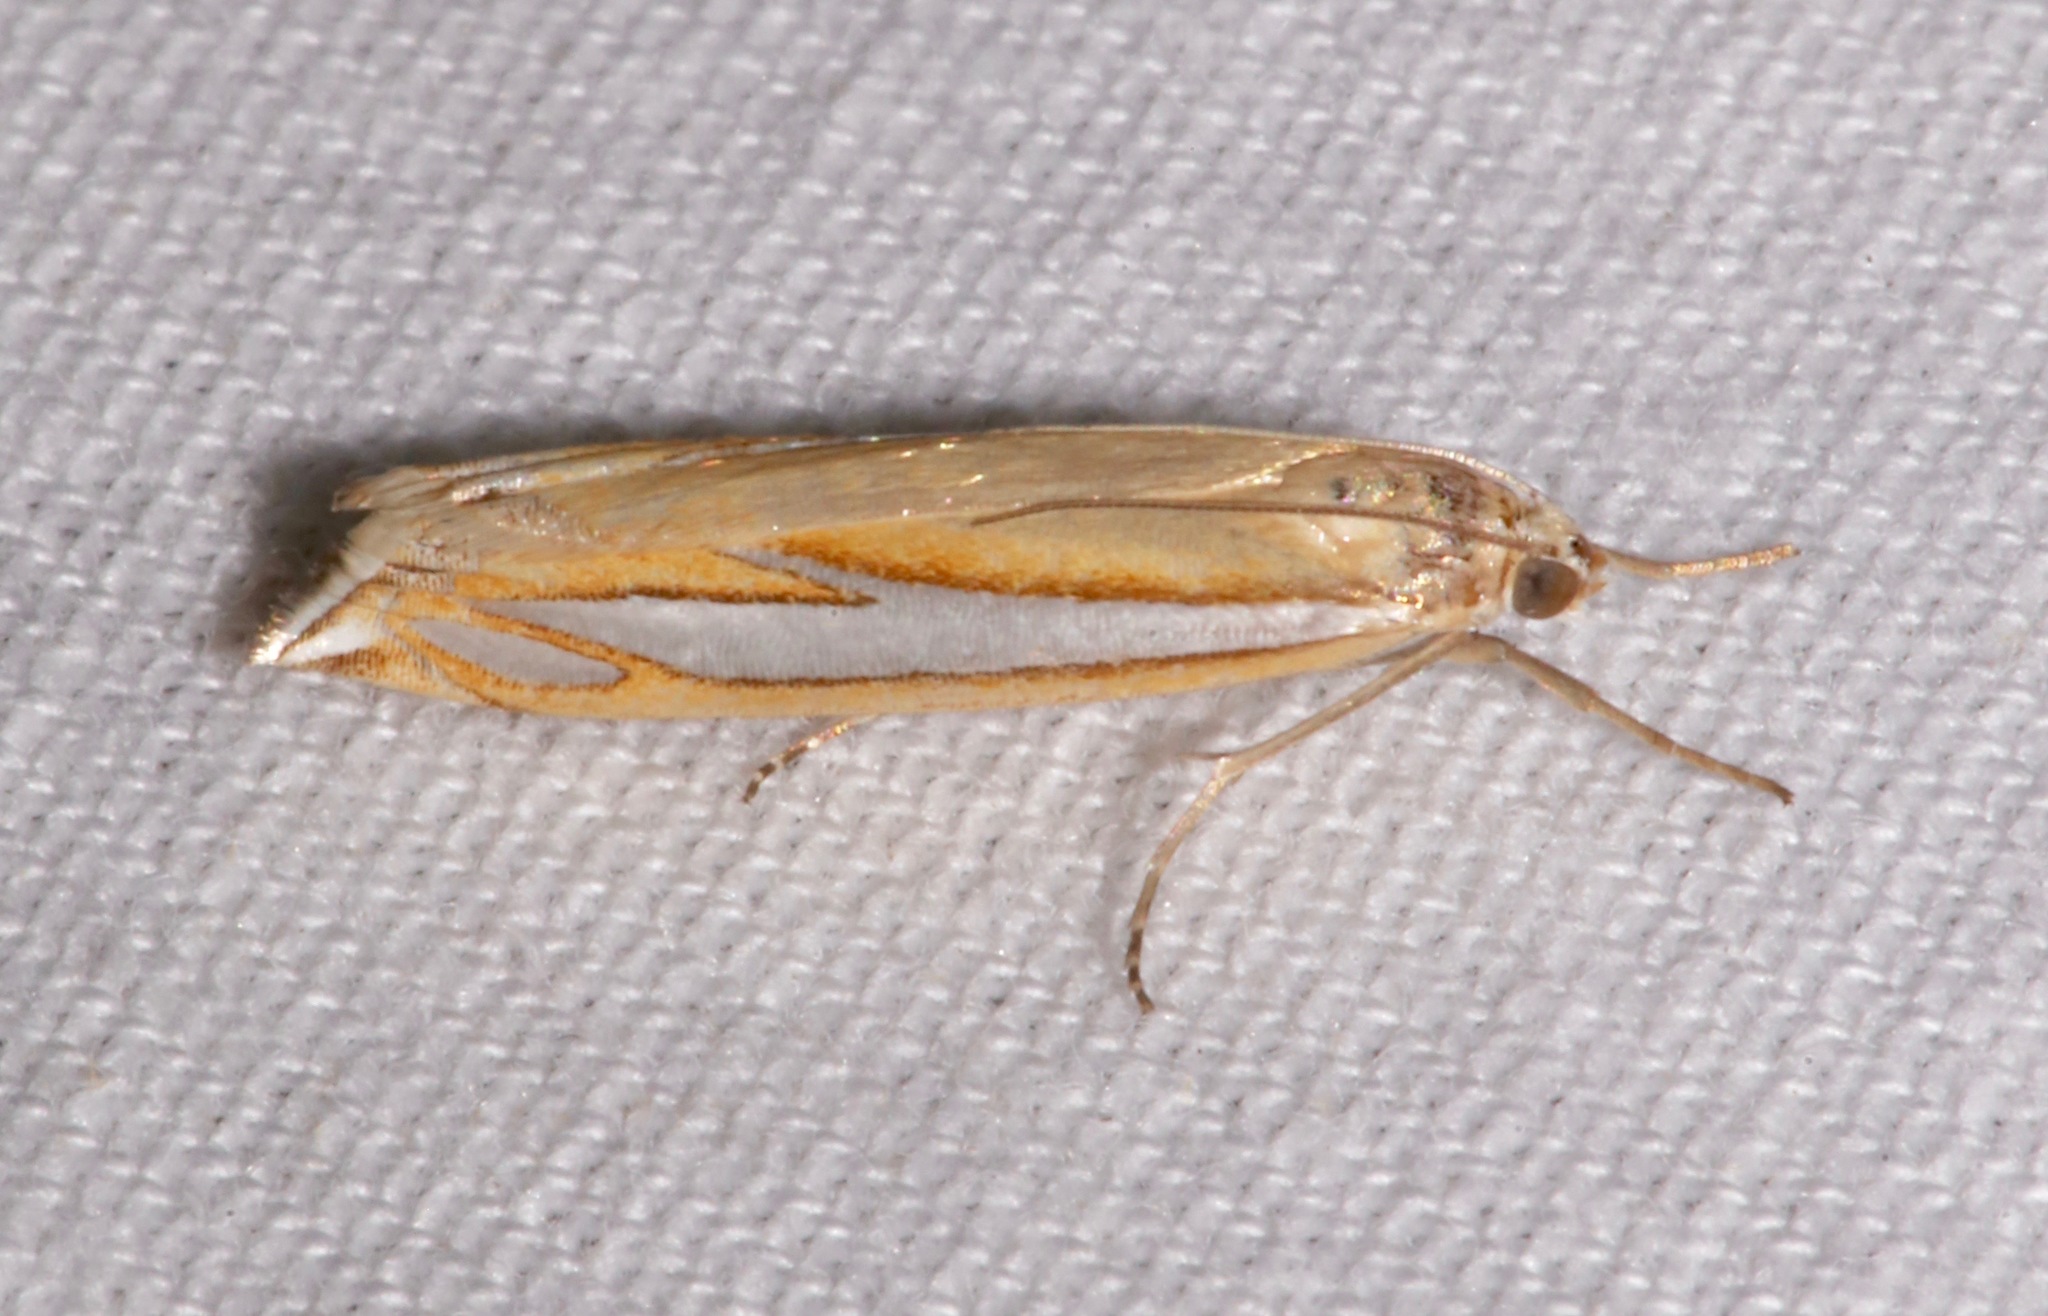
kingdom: Animalia
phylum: Arthropoda
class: Insecta
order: Lepidoptera
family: Crambidae
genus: Crambus
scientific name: Crambus satrapellus
